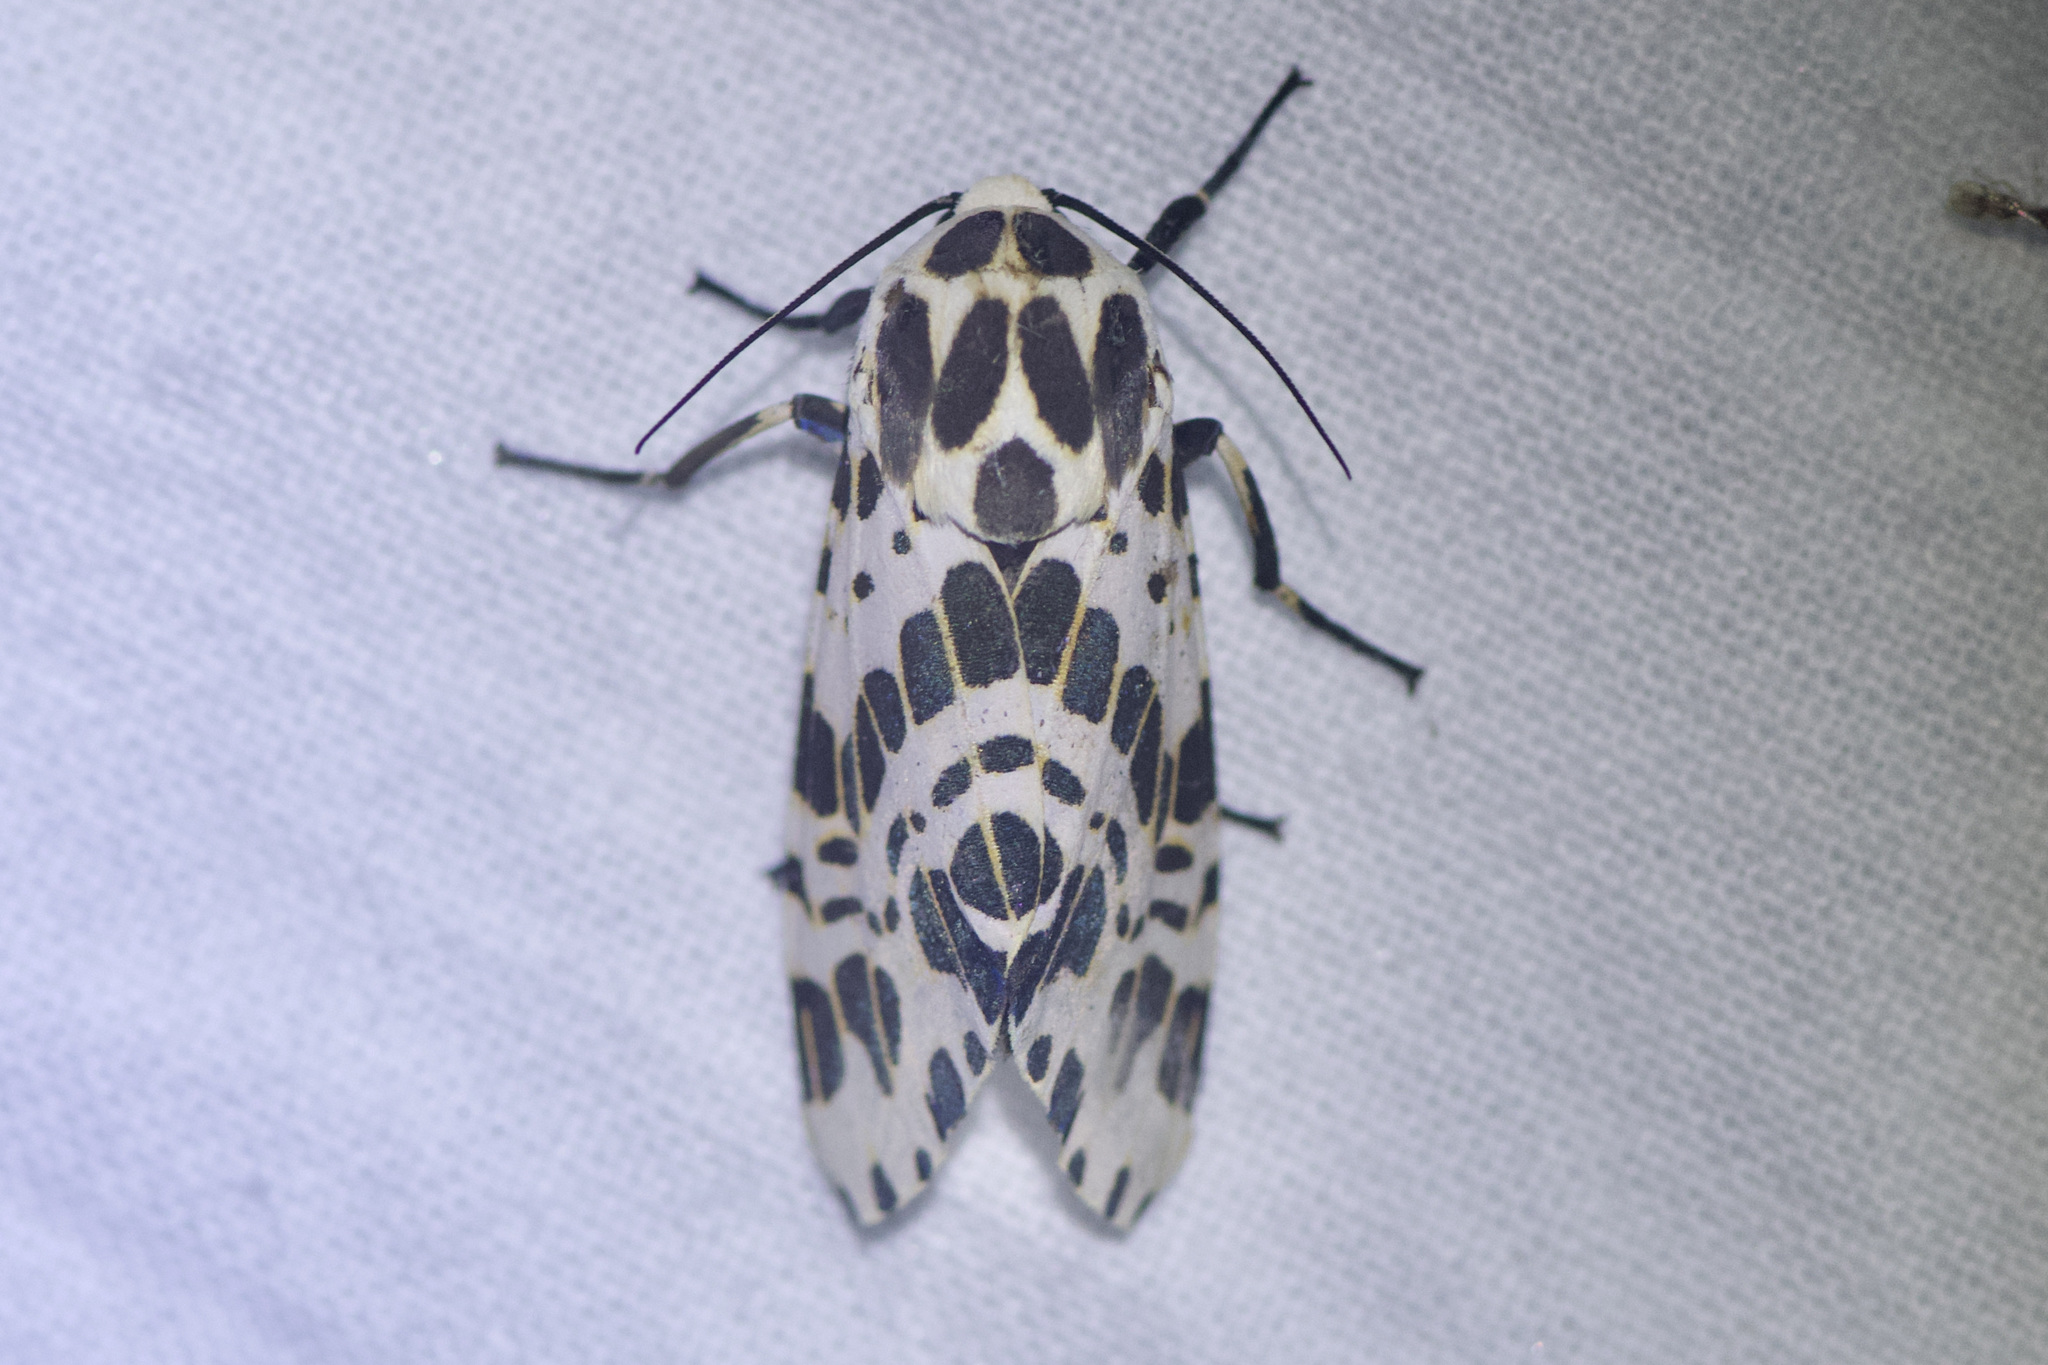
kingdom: Animalia
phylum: Arthropoda
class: Insecta
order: Lepidoptera
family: Erebidae
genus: Hypercompe
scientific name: Hypercompe laeta
